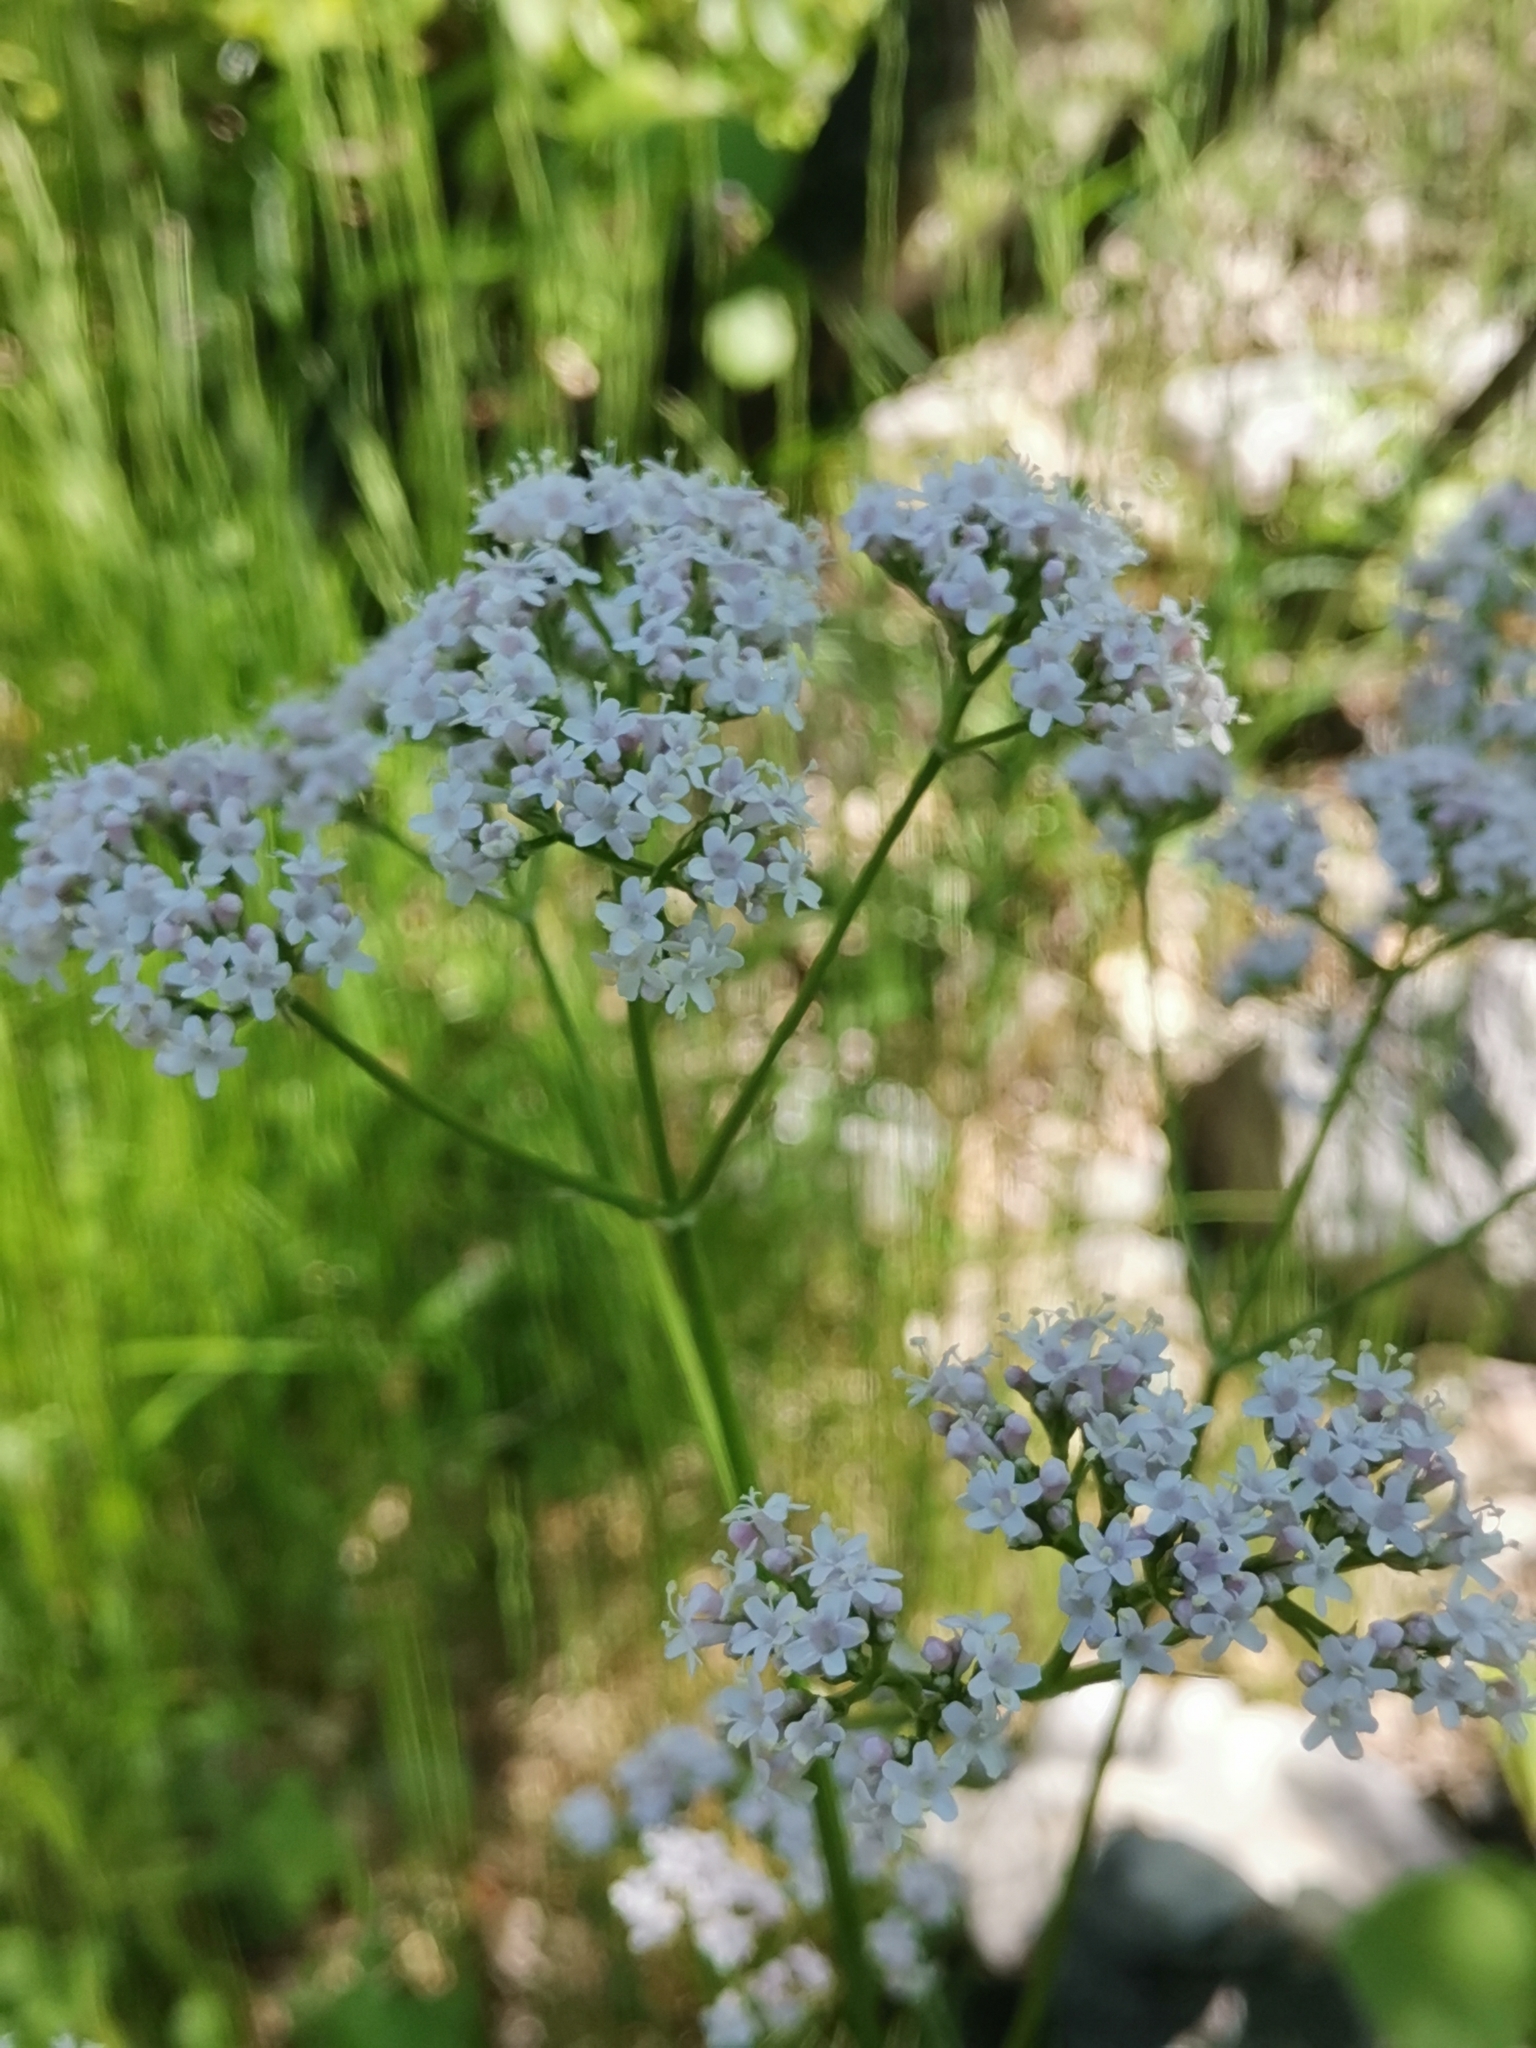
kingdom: Plantae
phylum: Tracheophyta
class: Magnoliopsida
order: Dipsacales
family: Caprifoliaceae
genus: Valeriana
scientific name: Valeriana pratensis
